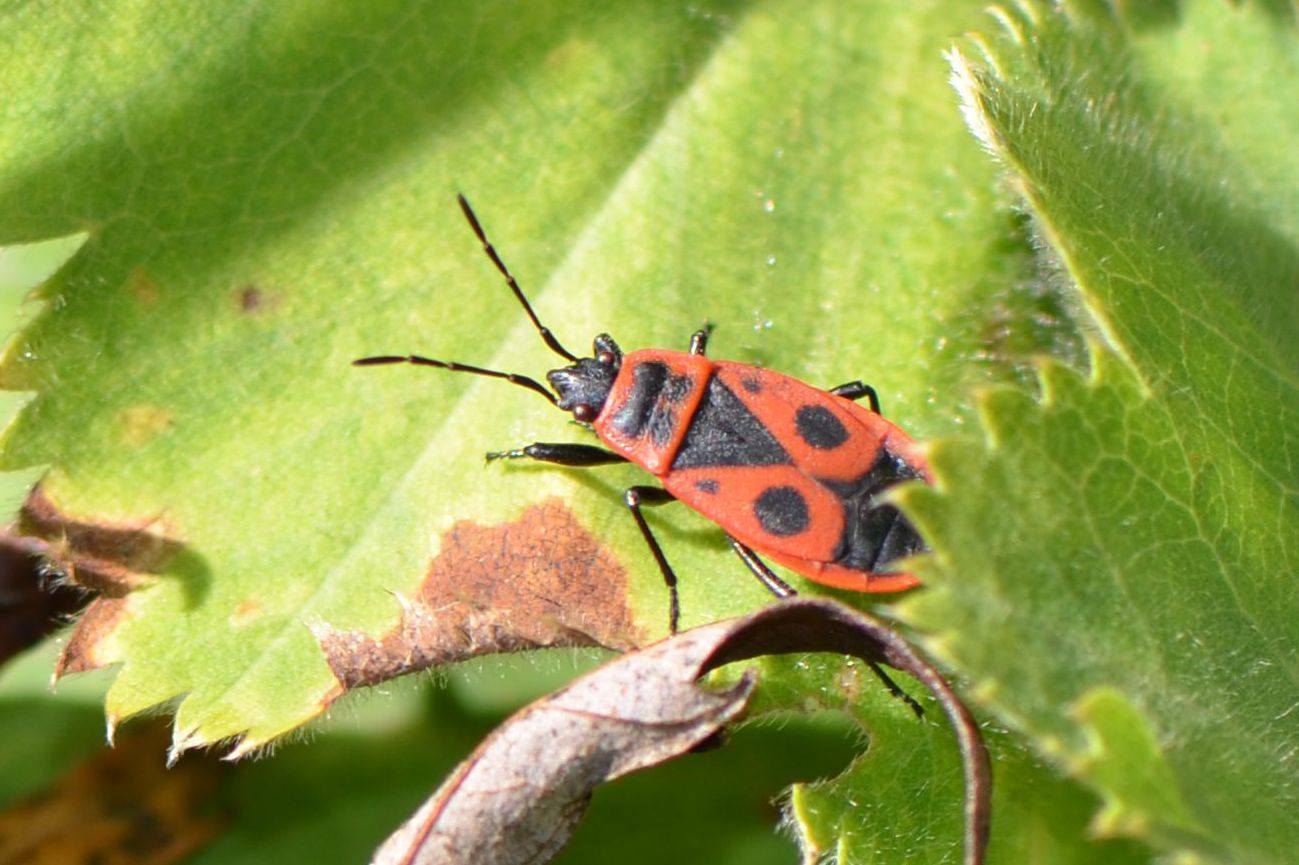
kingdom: Animalia
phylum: Arthropoda
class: Insecta
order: Hemiptera
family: Pyrrhocoridae
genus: Pyrrhocoris
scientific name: Pyrrhocoris apterus
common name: Firebug
